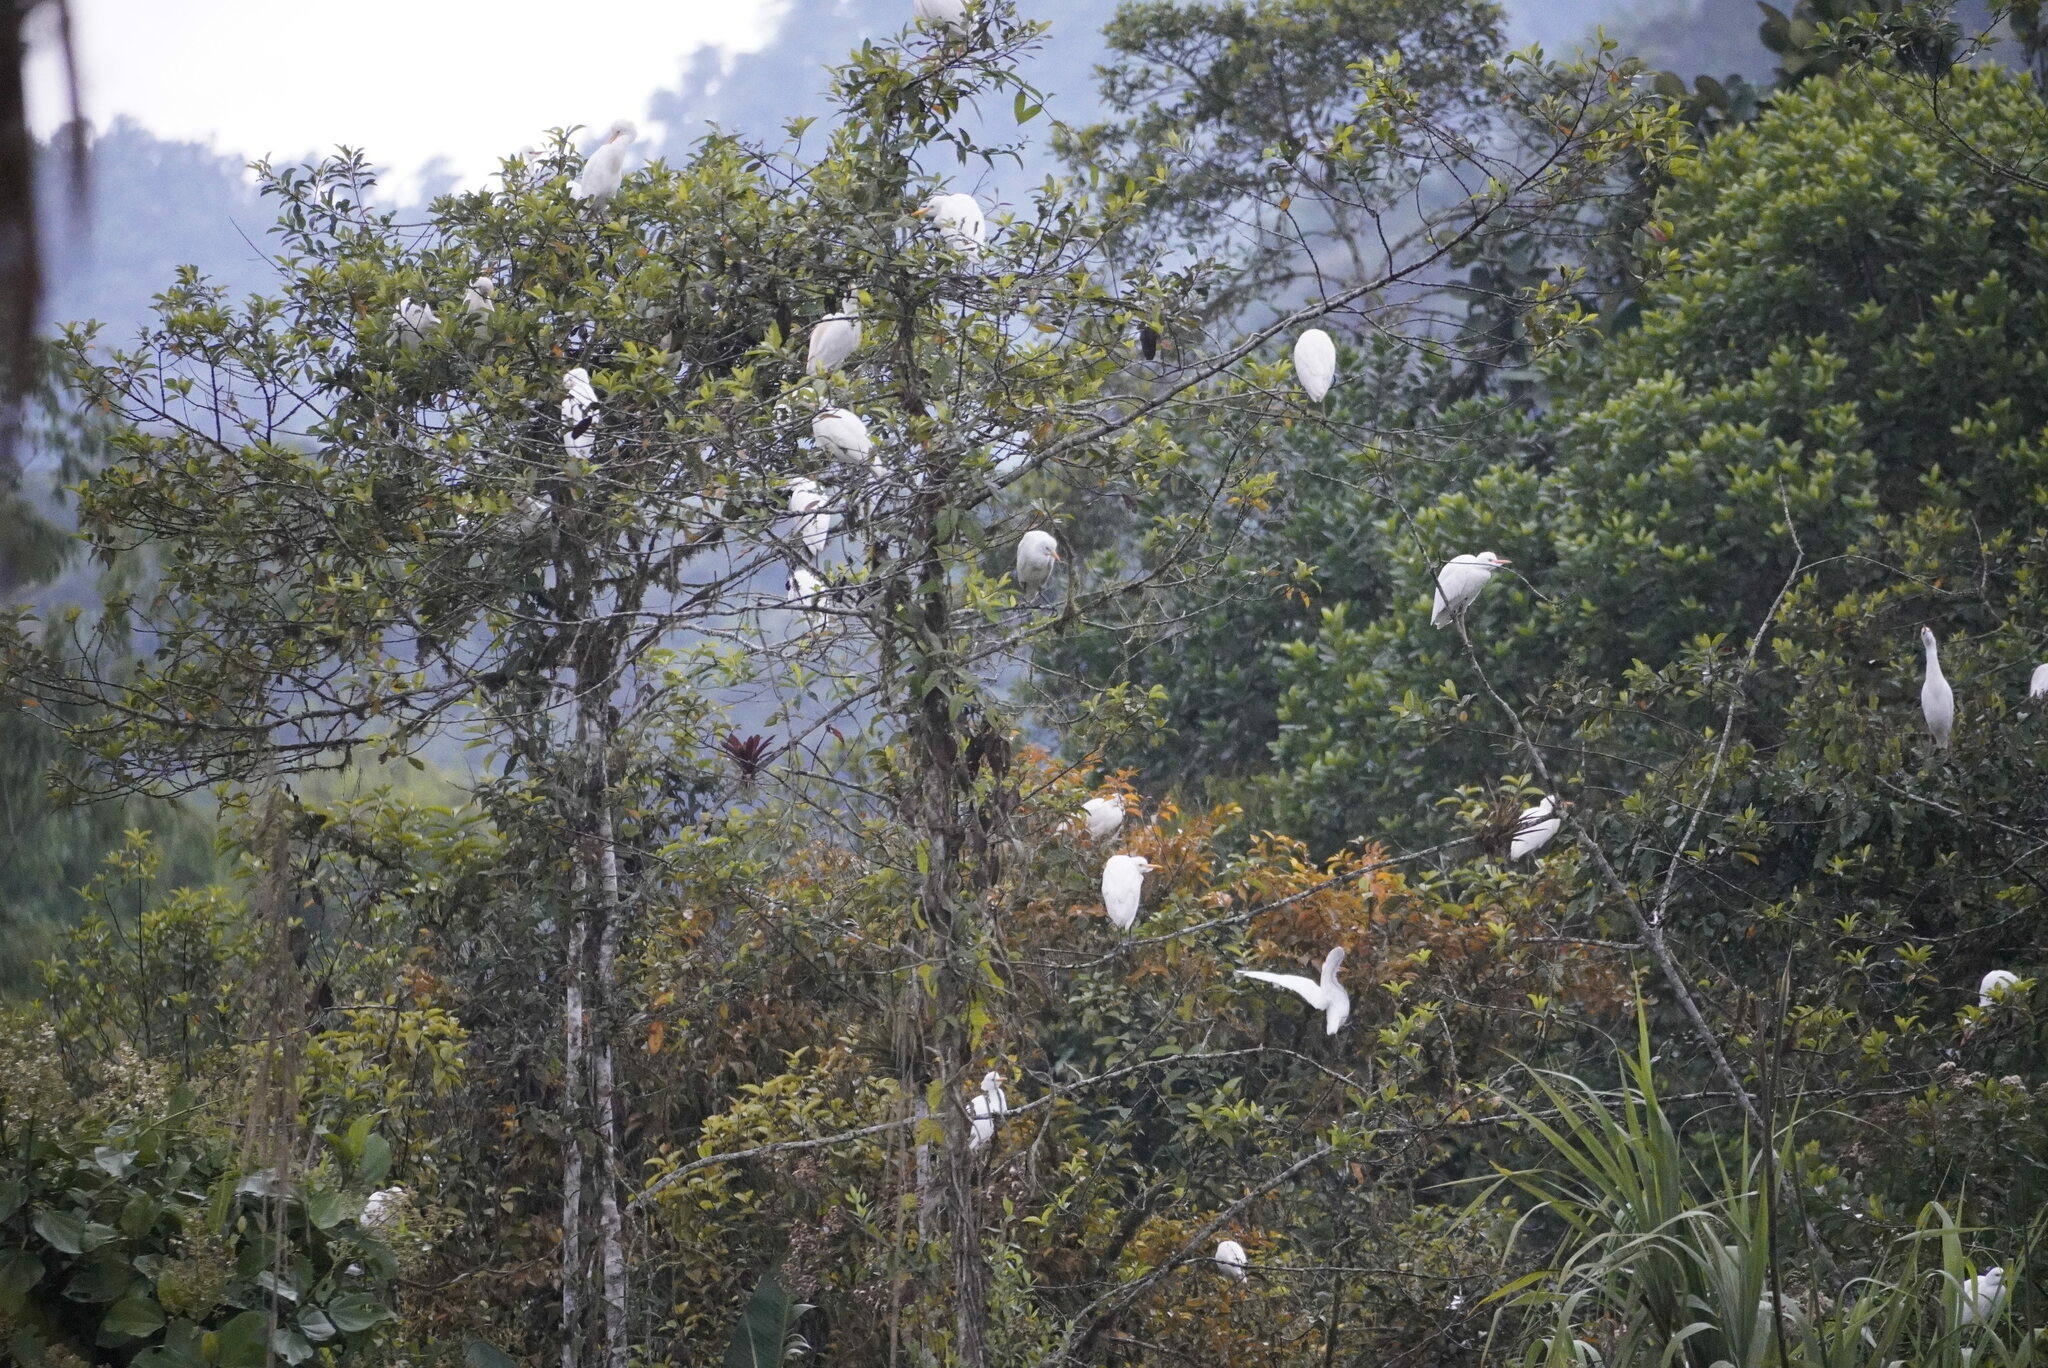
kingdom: Animalia
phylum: Chordata
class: Aves
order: Pelecaniformes
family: Ardeidae
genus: Bubulcus
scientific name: Bubulcus ibis
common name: Cattle egret
